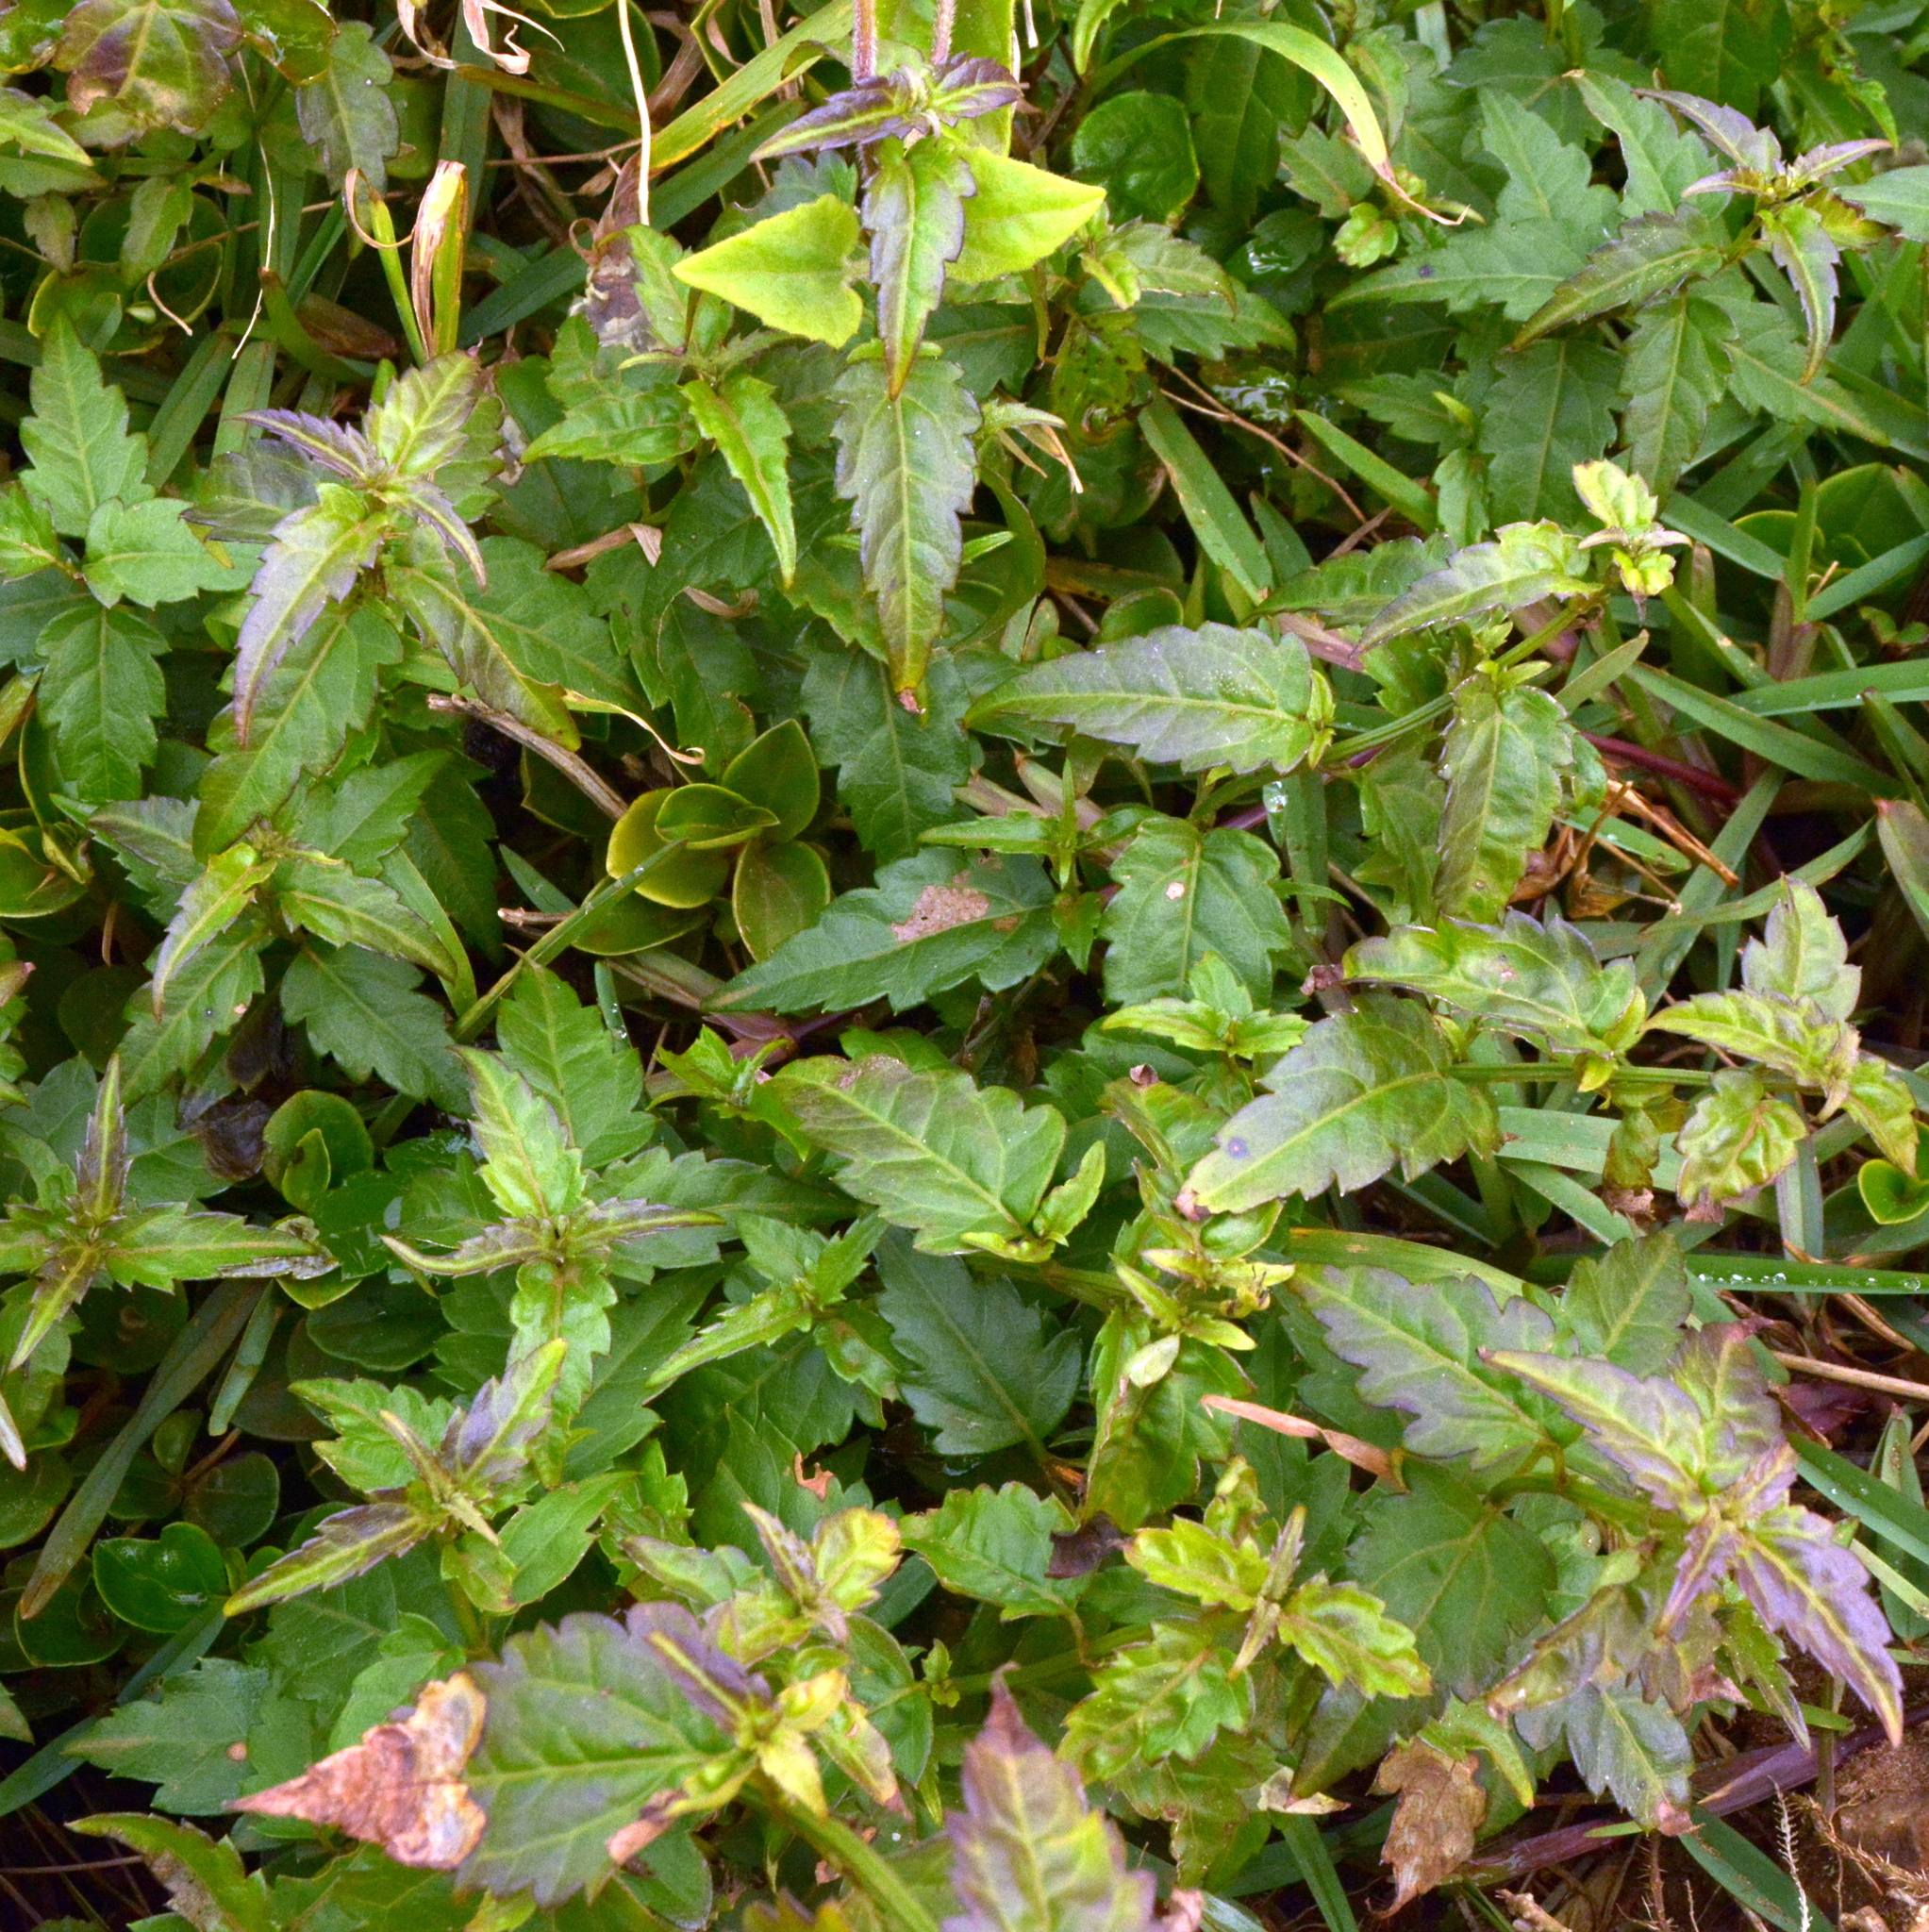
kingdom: Plantae
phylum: Tracheophyta
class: Magnoliopsida
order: Asterales
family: Asteraceae
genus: Calea
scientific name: Calea pinnatifida
